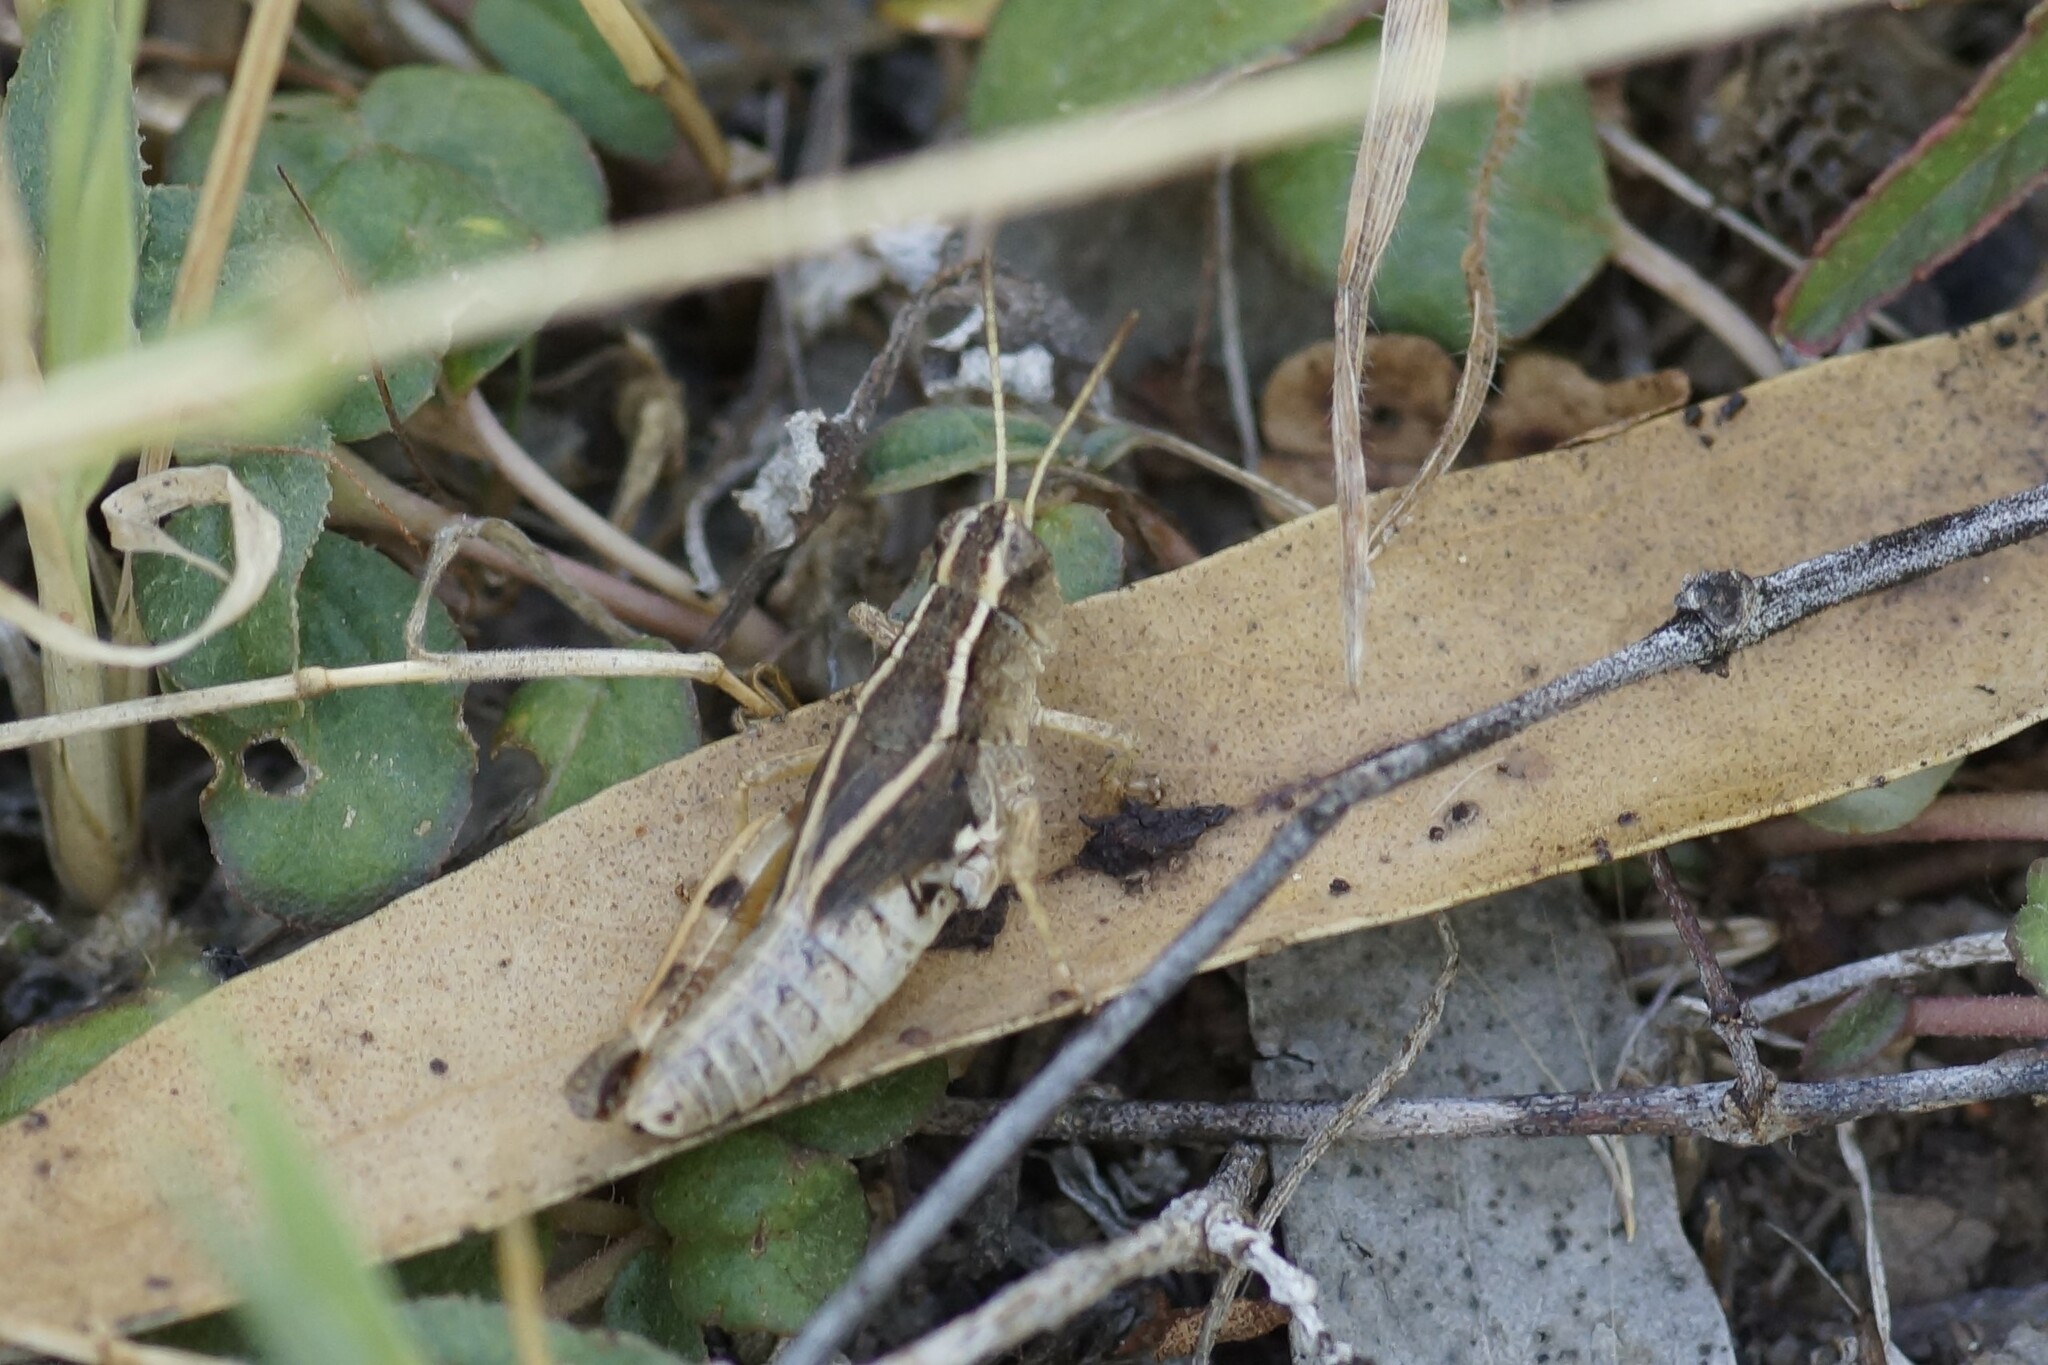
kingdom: Animalia
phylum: Arthropoda
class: Insecta
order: Orthoptera
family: Acrididae
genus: Phaulacridium
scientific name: Phaulacridium vittatum
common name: Wingless grasshopper
